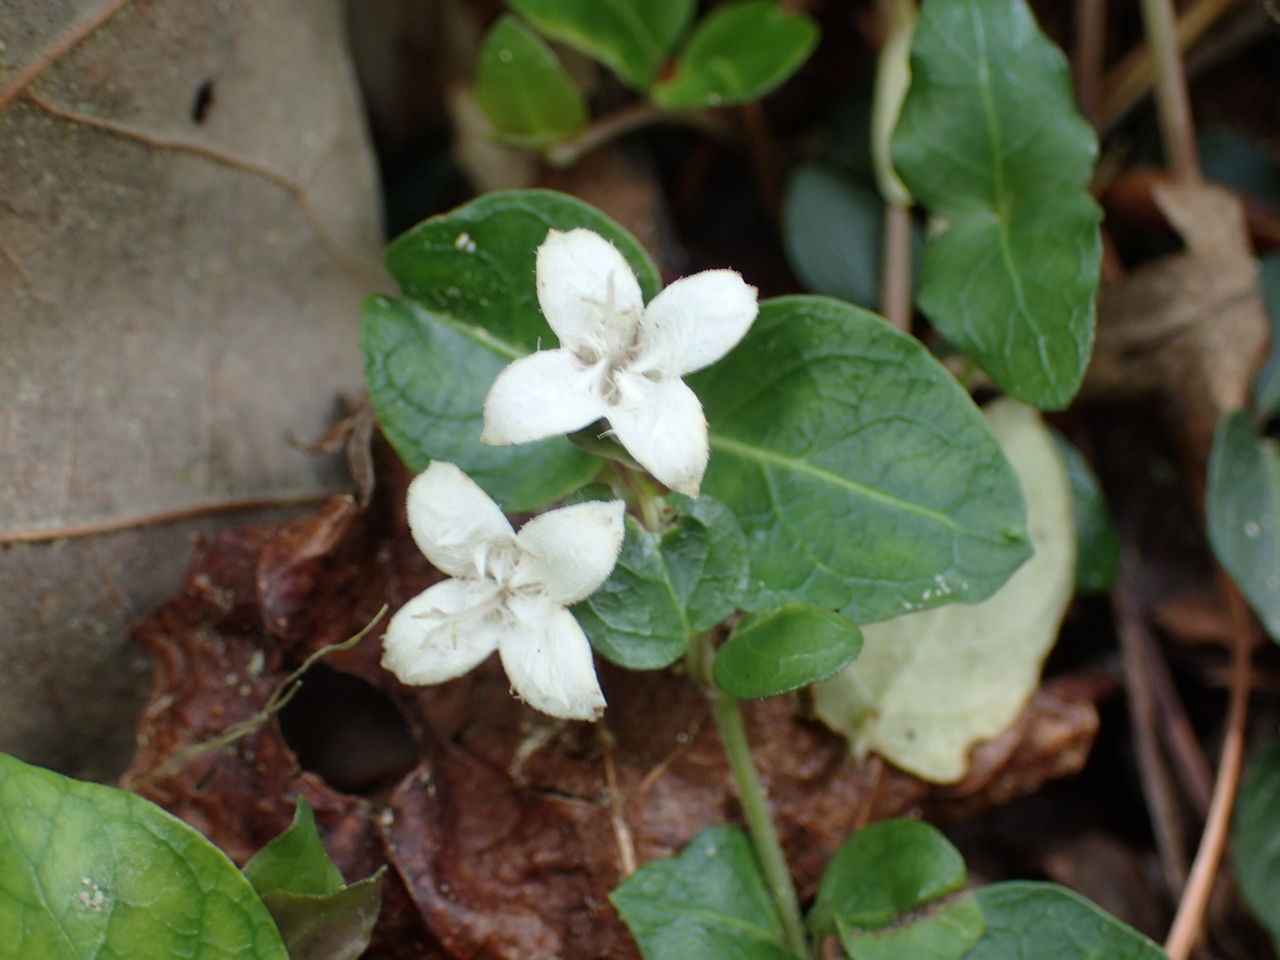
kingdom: Plantae
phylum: Tracheophyta
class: Magnoliopsida
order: Gentianales
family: Rubiaceae
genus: Mitchella
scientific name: Mitchella repens
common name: Partridge-berry
